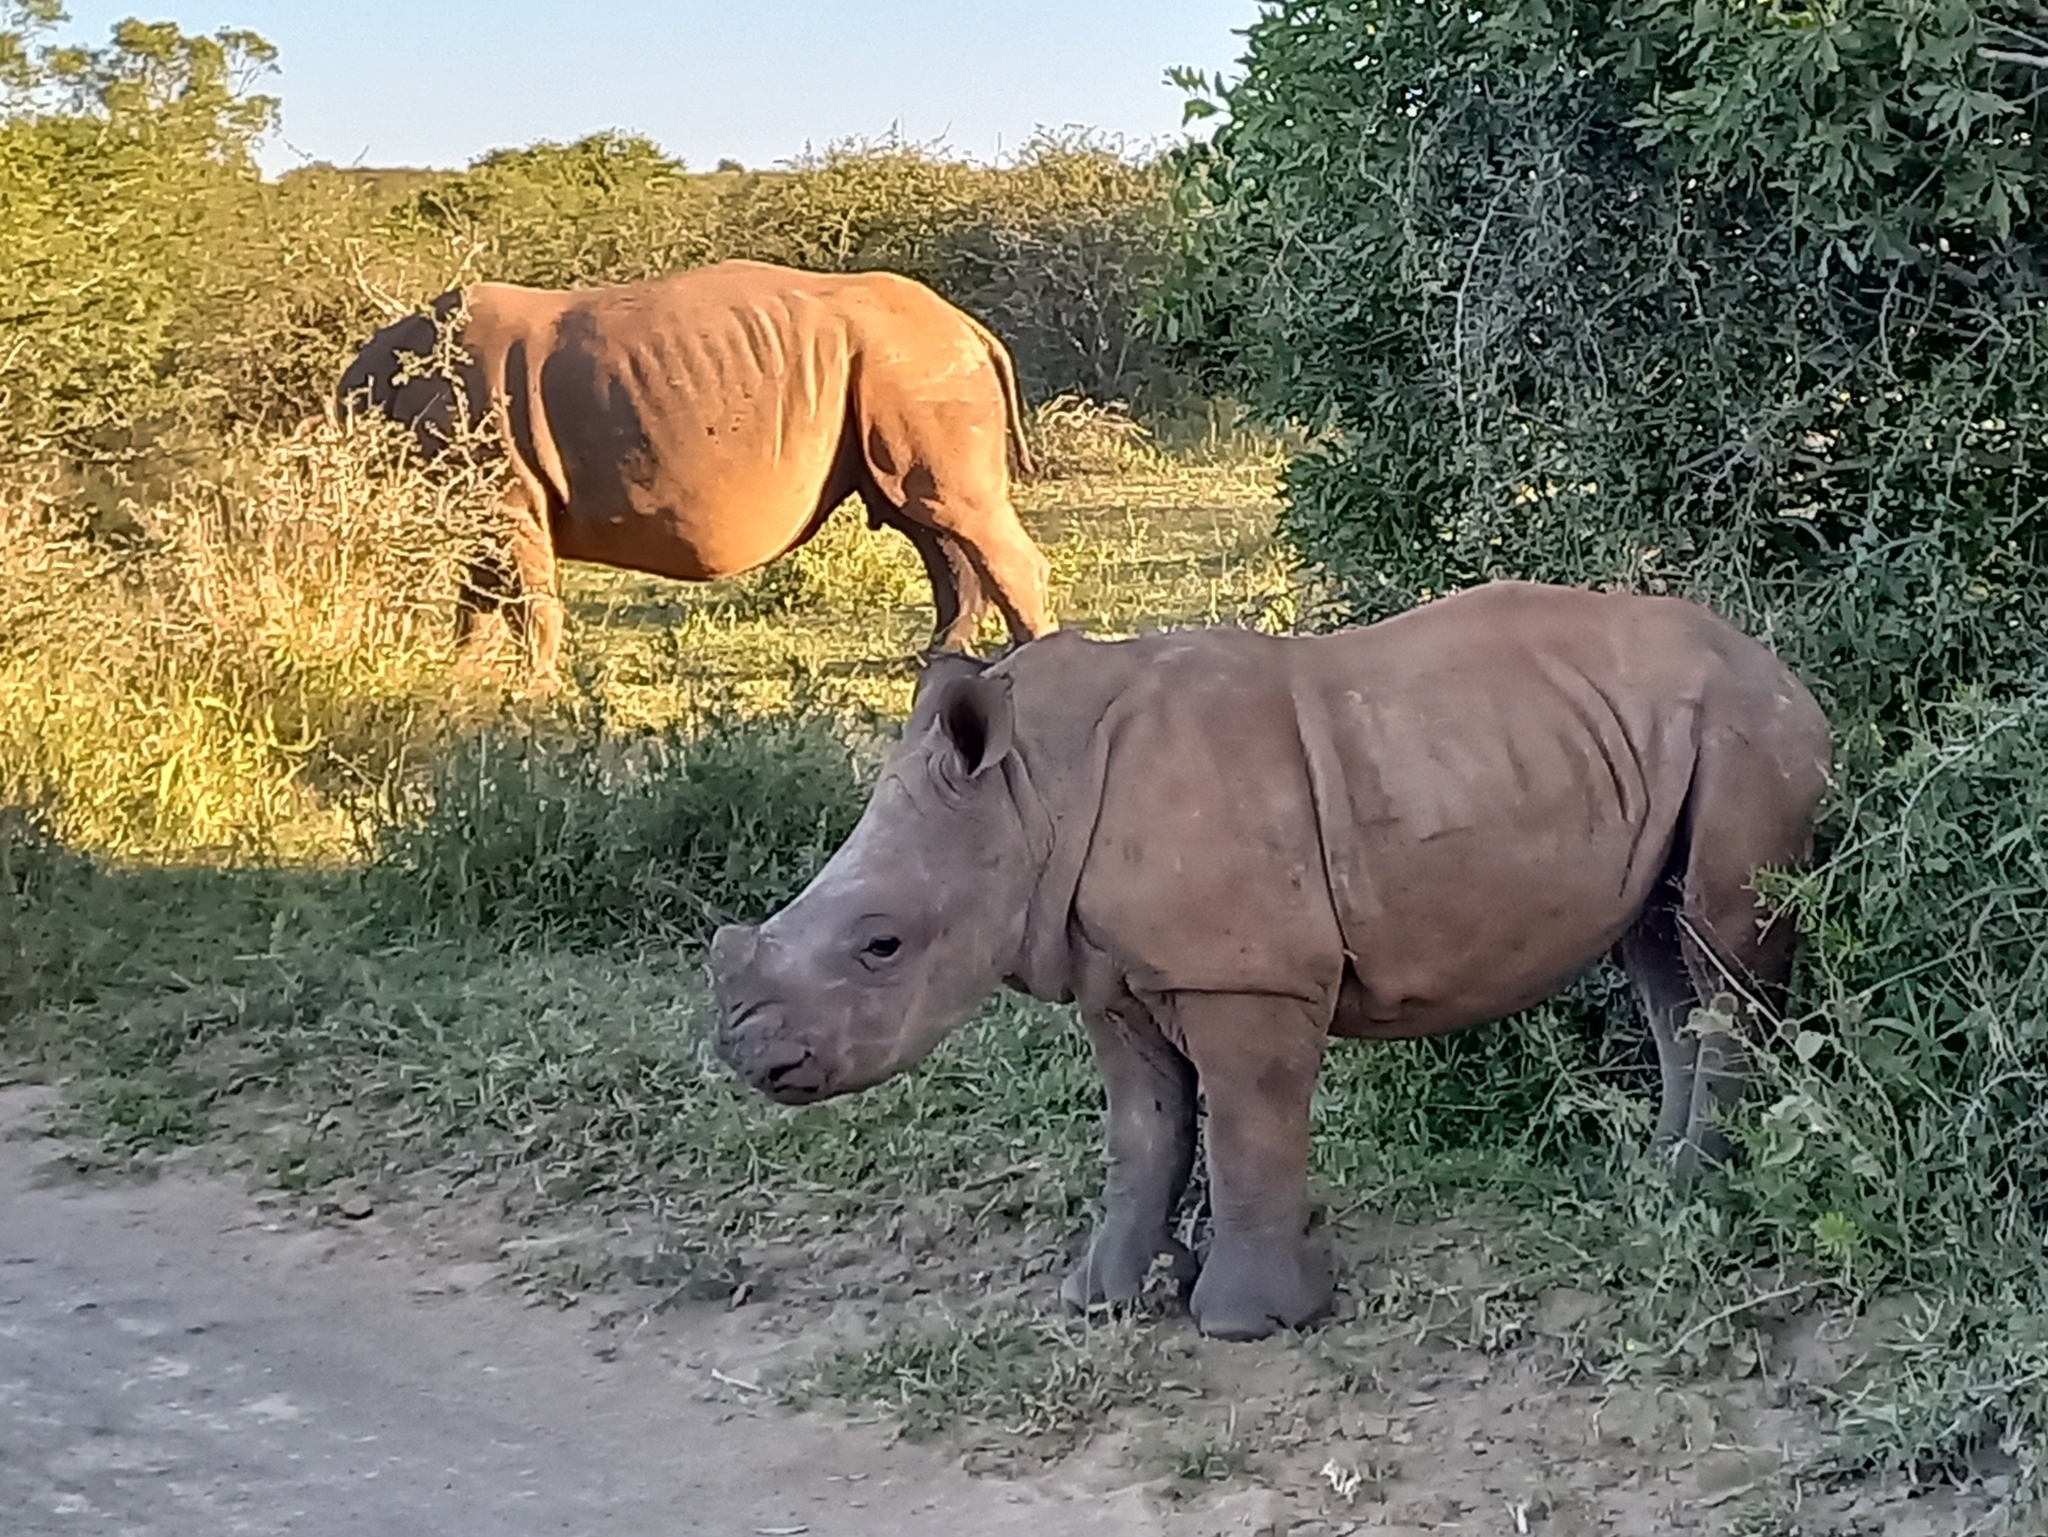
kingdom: Animalia
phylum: Chordata
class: Mammalia
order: Perissodactyla
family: Rhinocerotidae
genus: Ceratotherium
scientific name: Ceratotherium simum
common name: White rhinoceros
